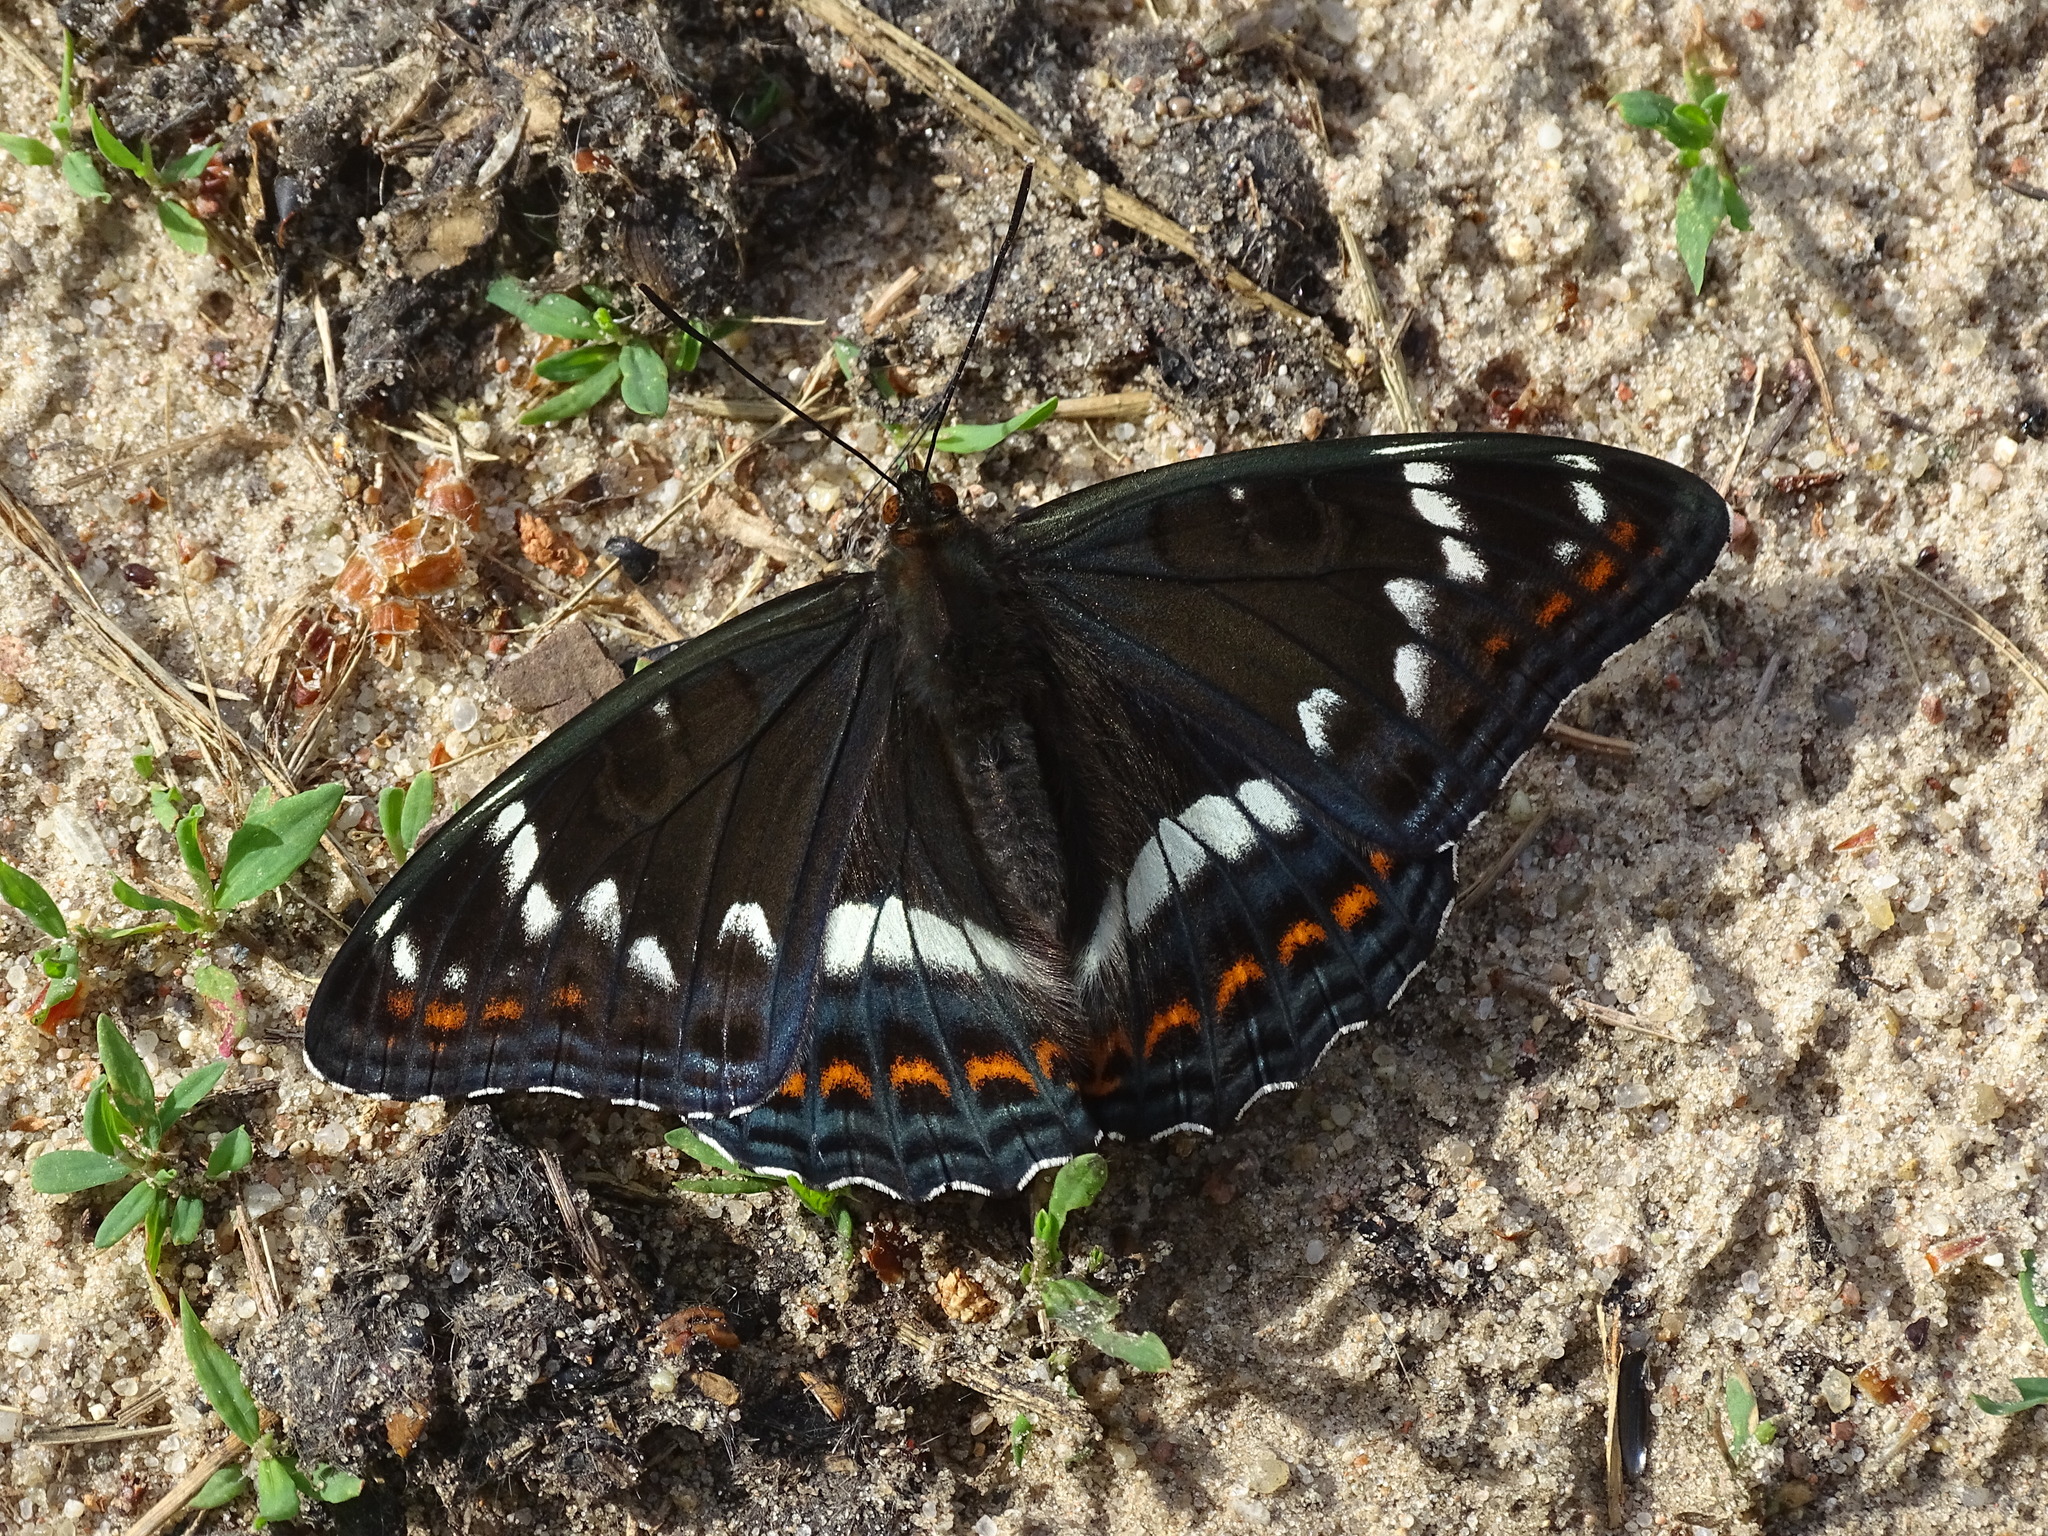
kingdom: Animalia
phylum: Arthropoda
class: Insecta
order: Lepidoptera
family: Nymphalidae
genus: Limenitis
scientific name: Limenitis populi
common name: Poplar admiral
